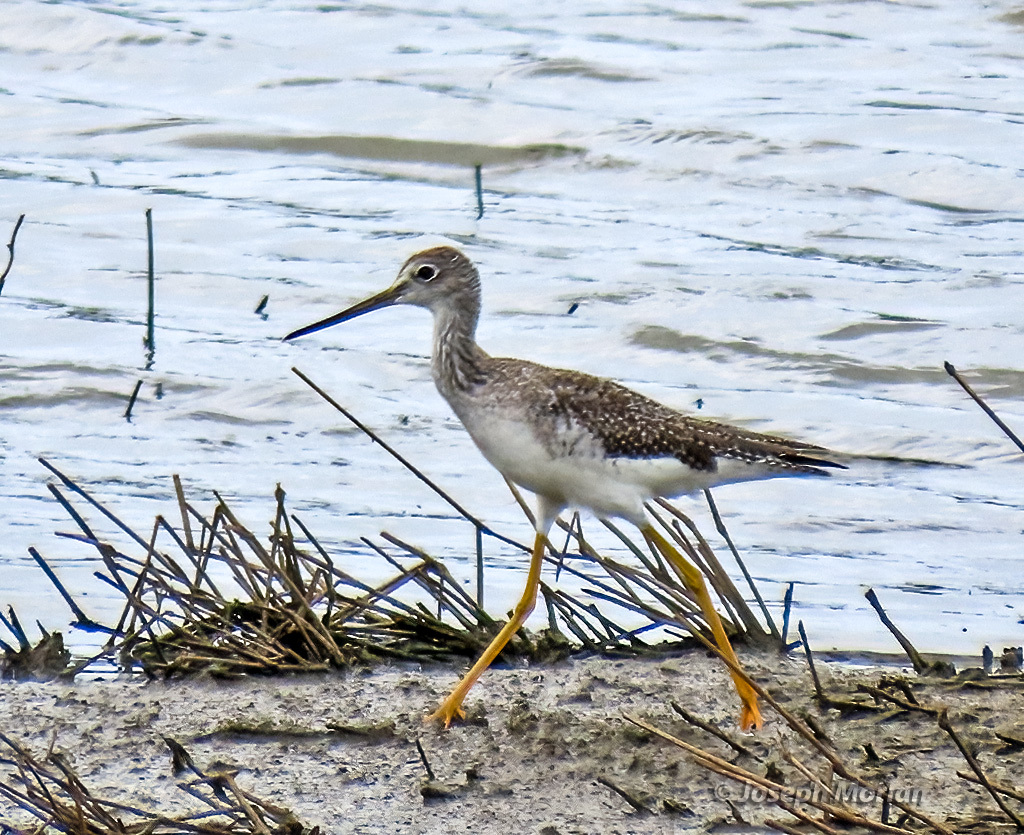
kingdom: Animalia
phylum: Chordata
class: Aves
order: Charadriiformes
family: Scolopacidae
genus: Tringa
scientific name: Tringa melanoleuca
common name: Greater yellowlegs
